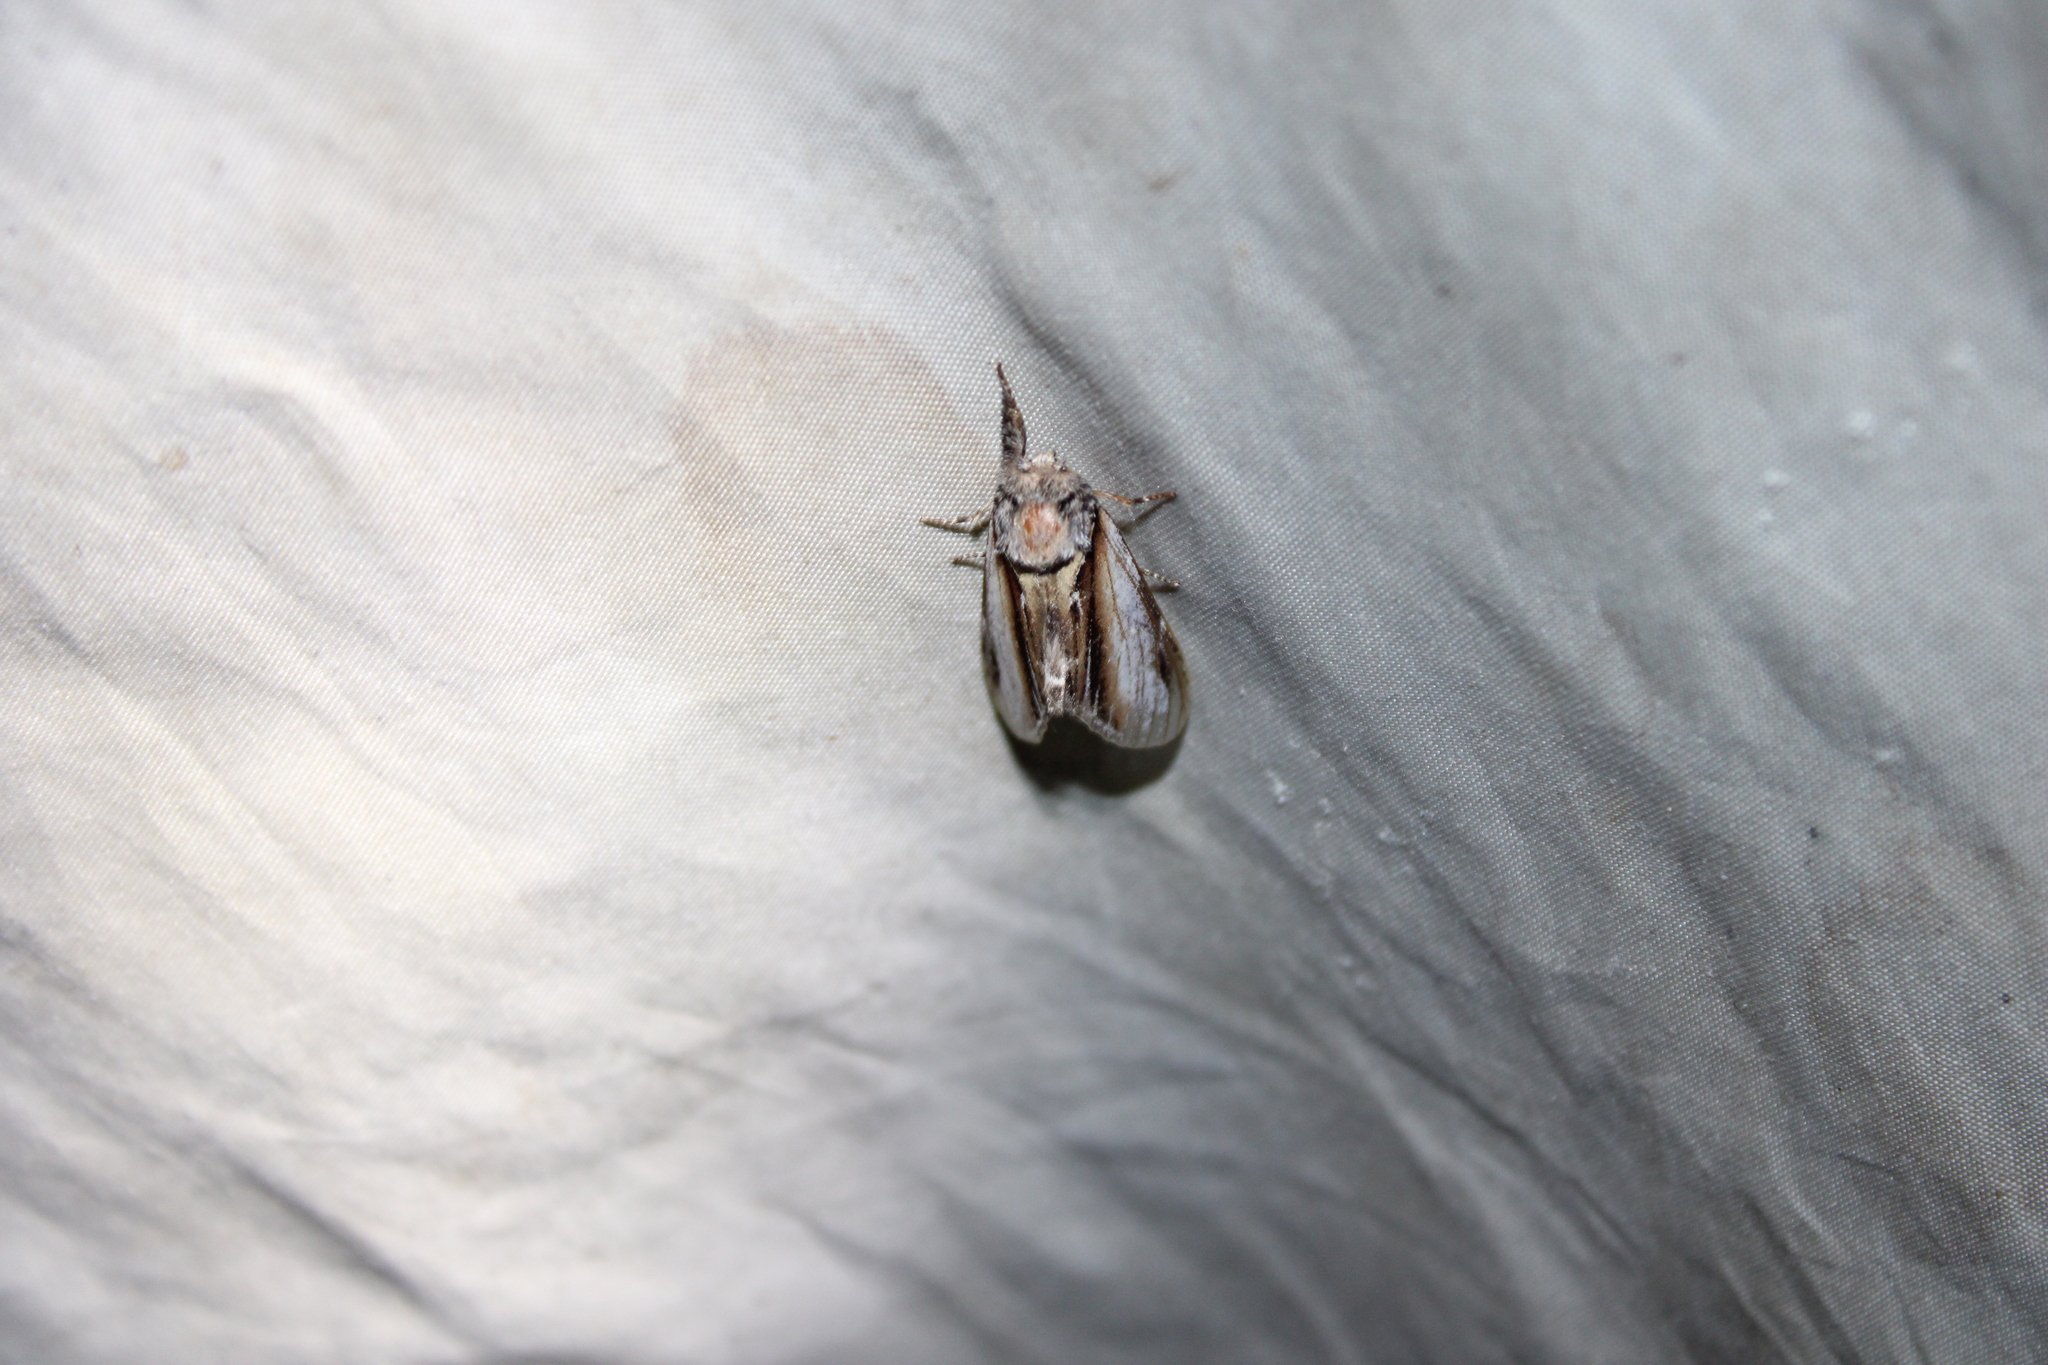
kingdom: Animalia
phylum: Arthropoda
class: Insecta
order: Lepidoptera
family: Notodontidae
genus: Pheosia
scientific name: Pheosia rimosa
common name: Black-rimmed prominent
